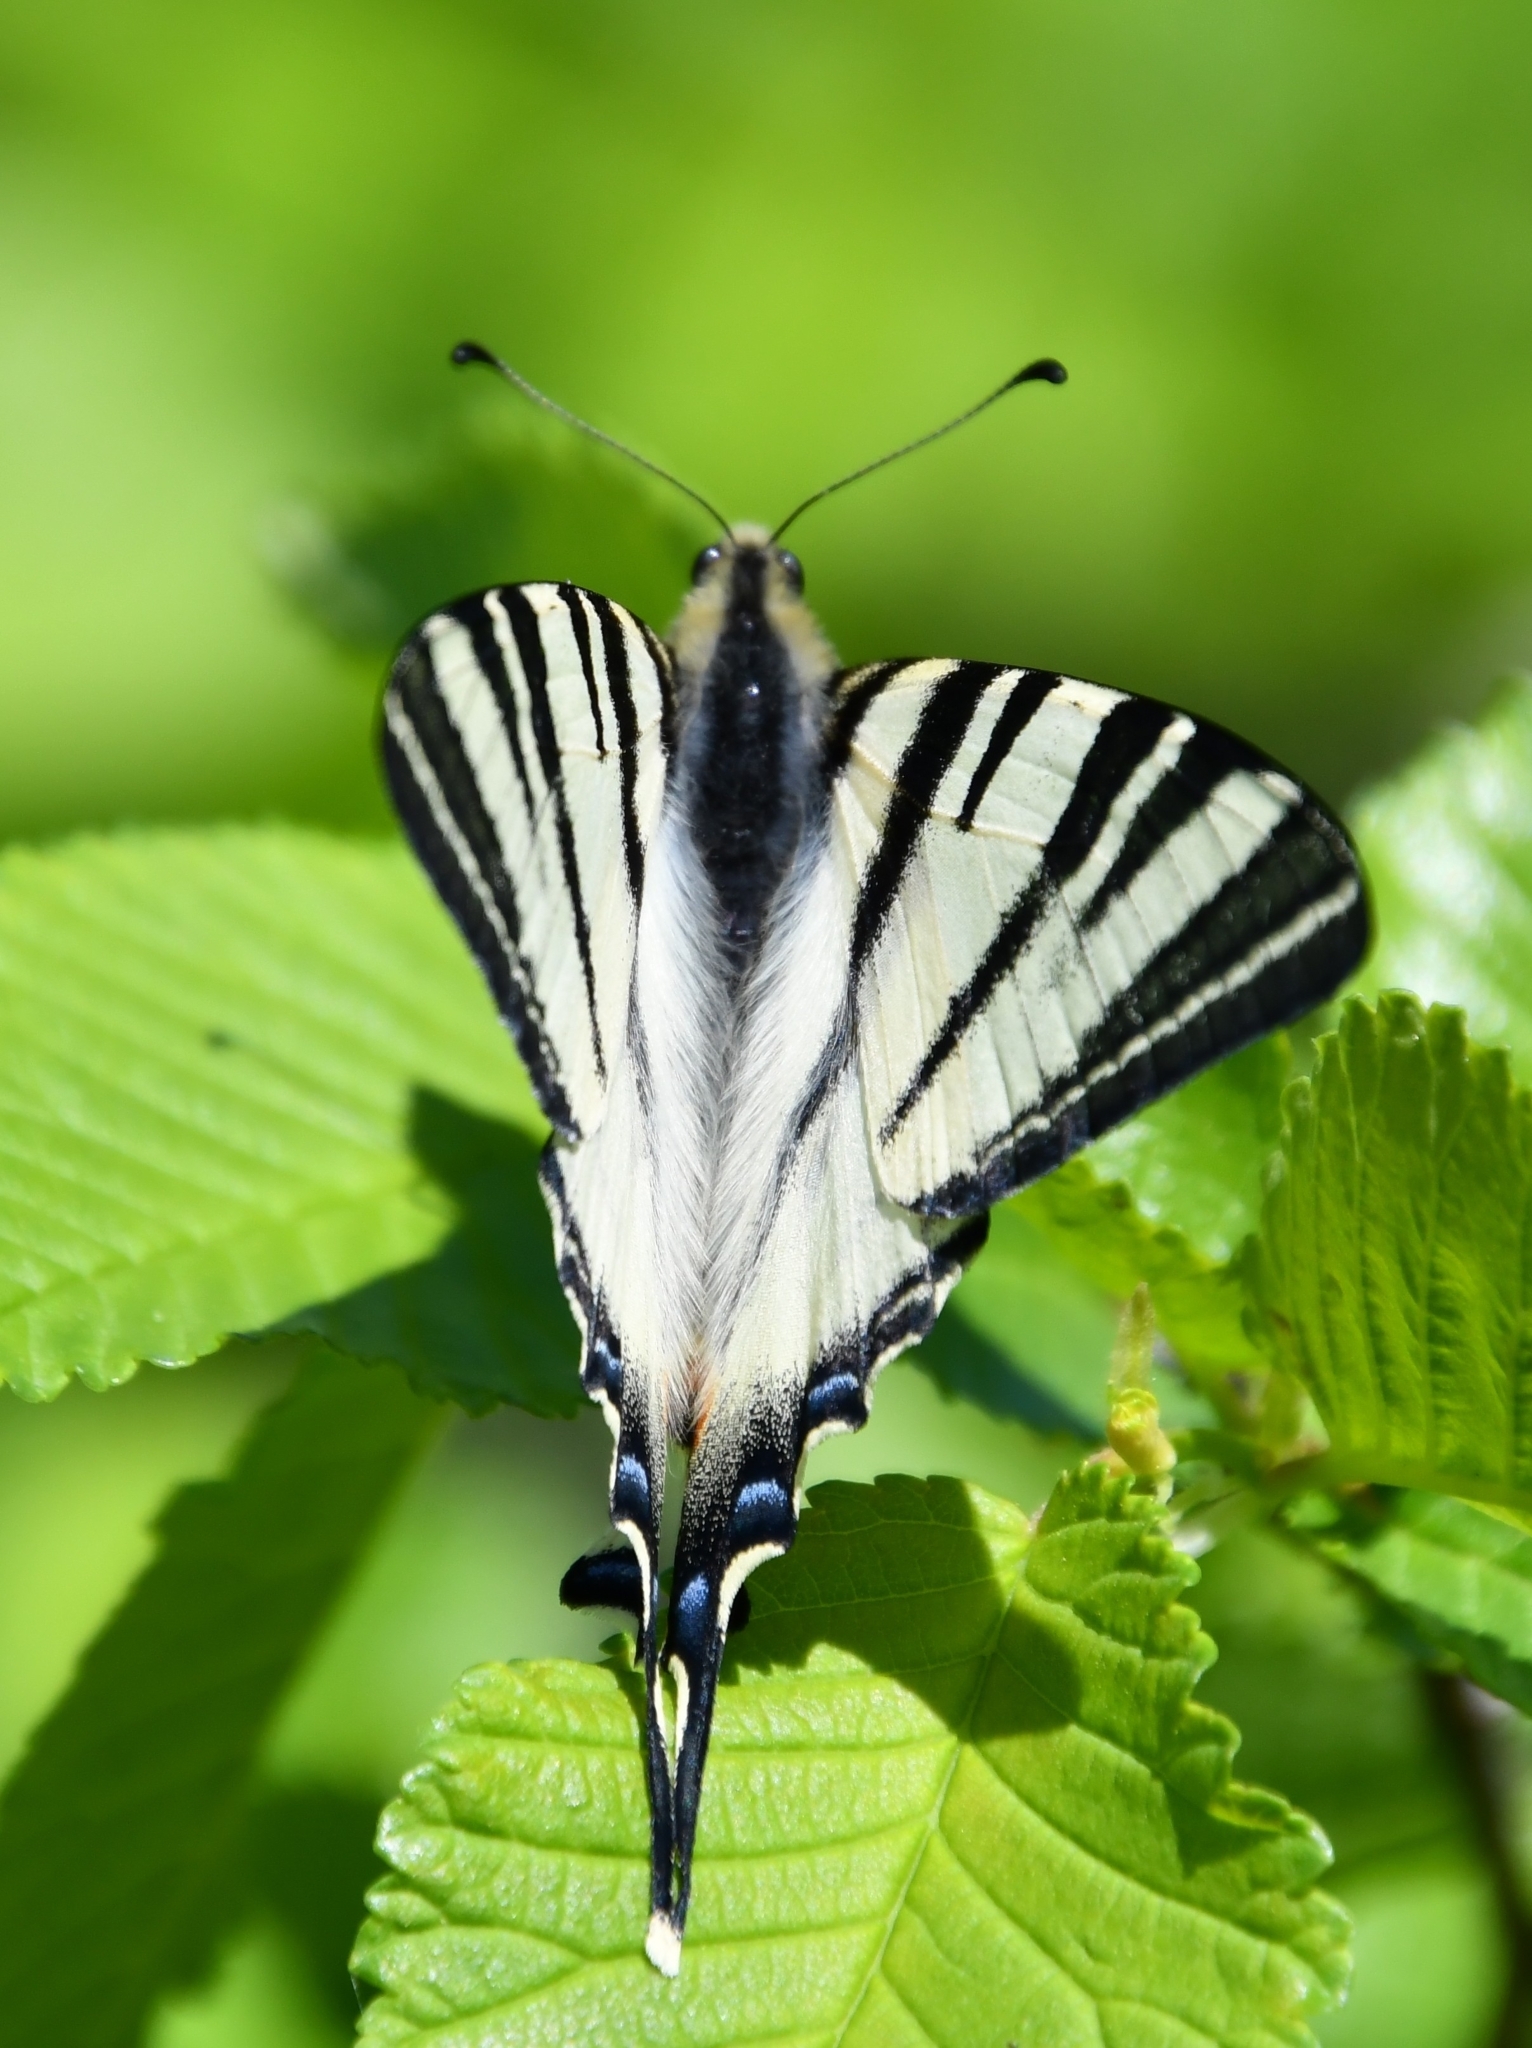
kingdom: Animalia
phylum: Arthropoda
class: Insecta
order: Lepidoptera
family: Papilionidae
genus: Iphiclides
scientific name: Iphiclides podalirius
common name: Scarce swallowtail
